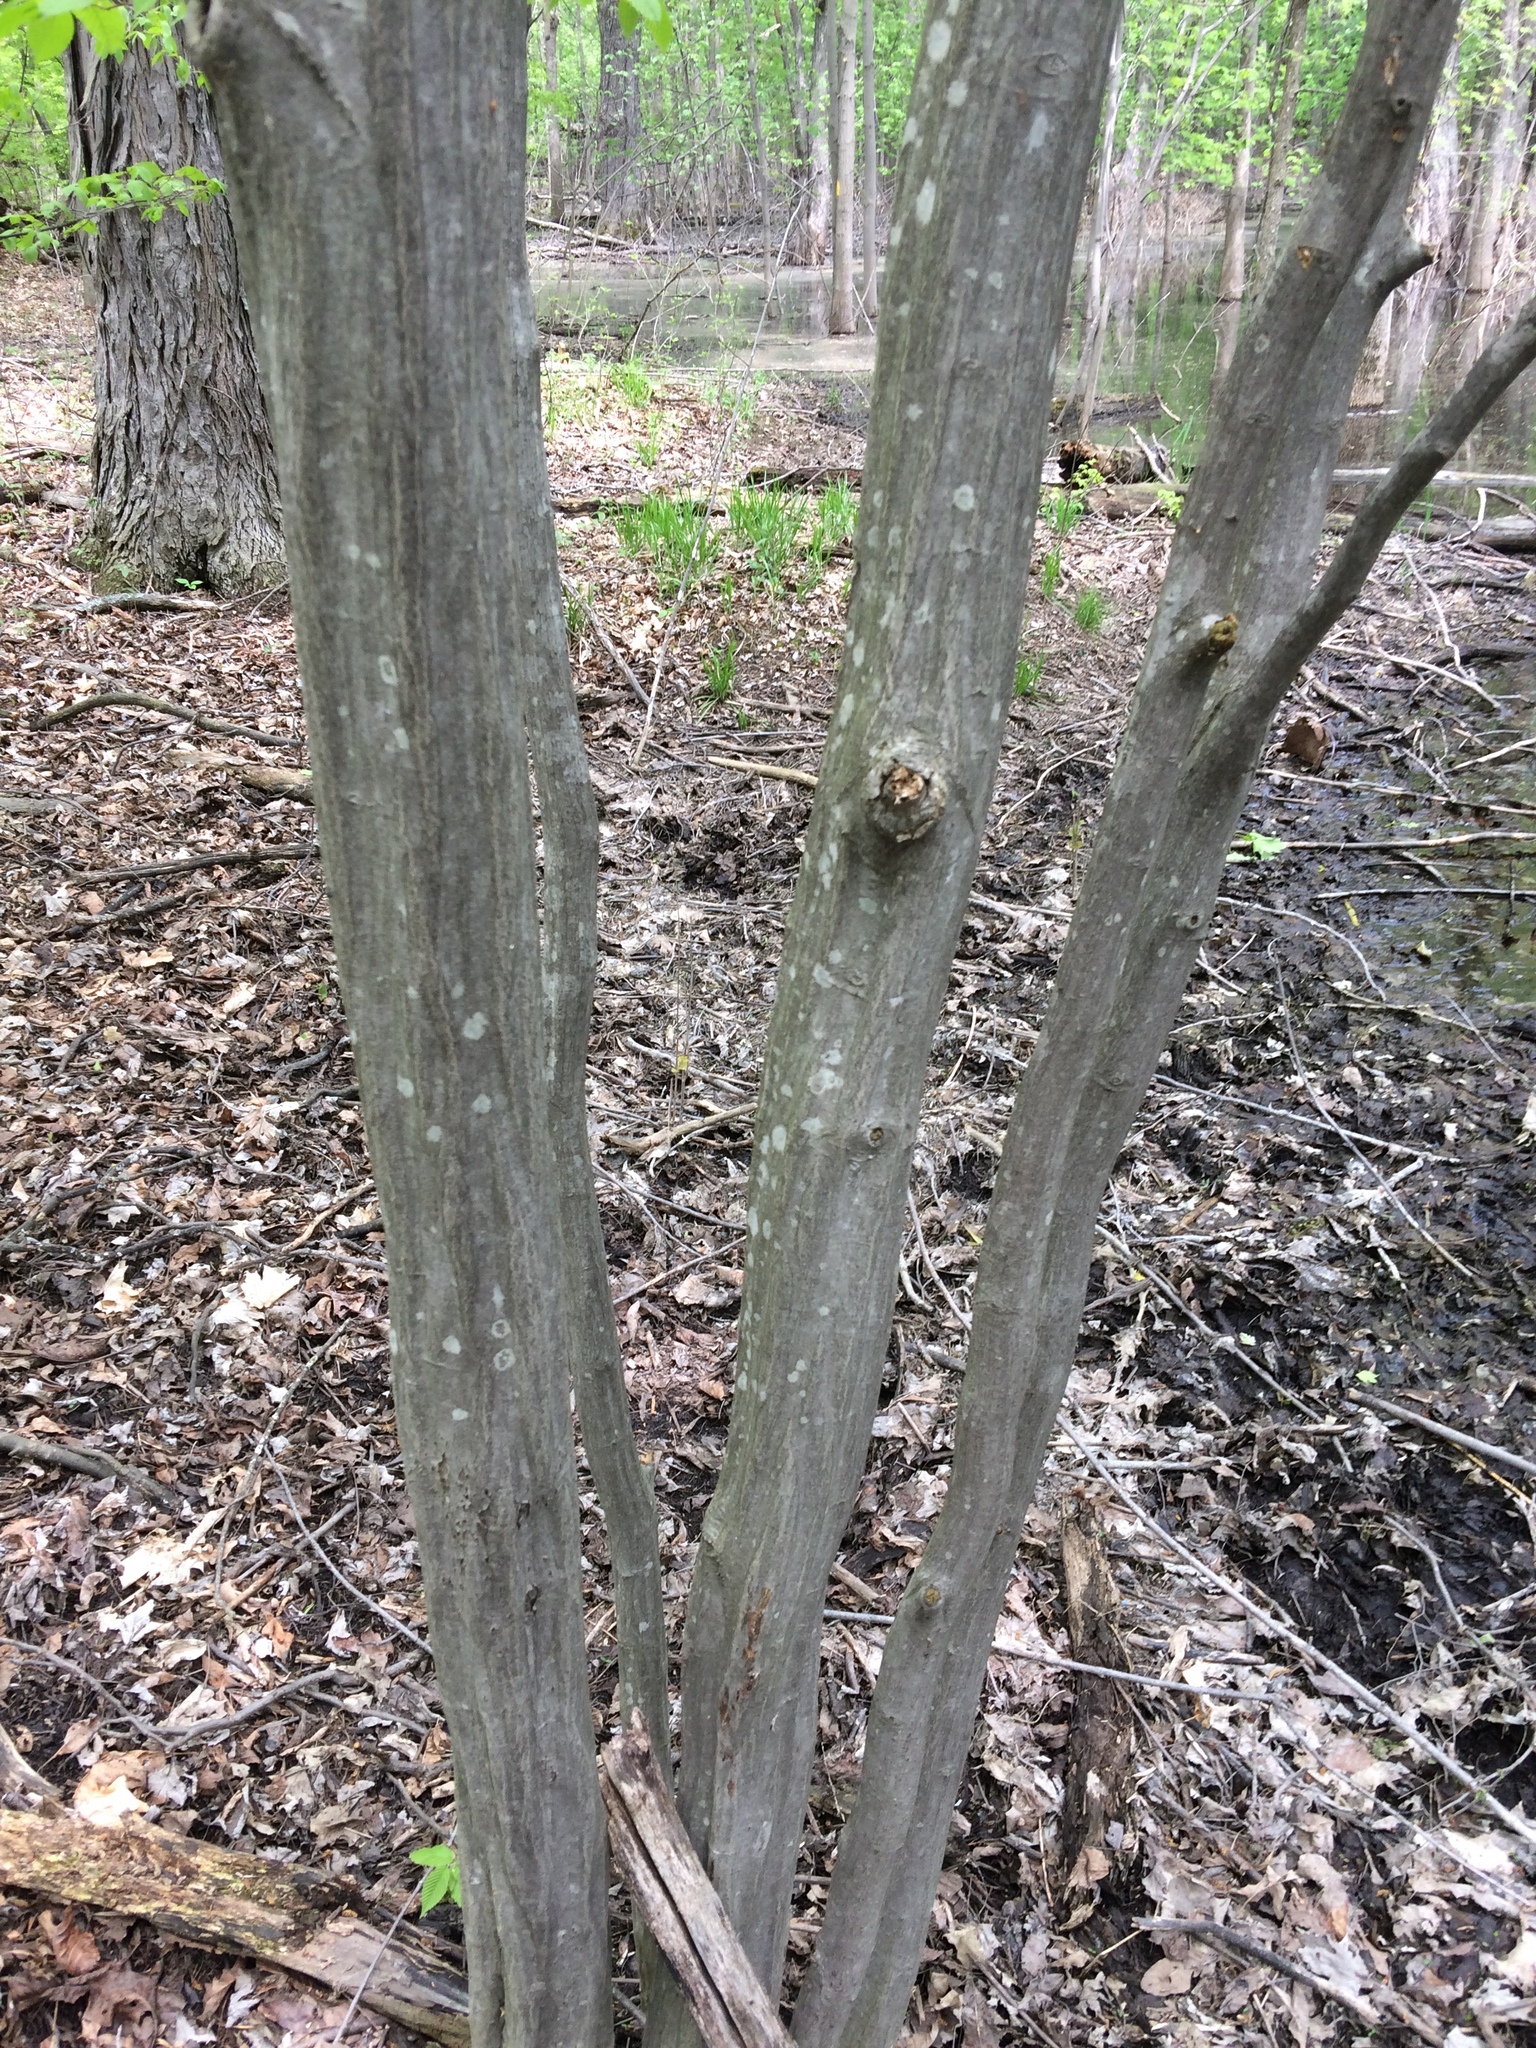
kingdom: Plantae
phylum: Tracheophyta
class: Magnoliopsida
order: Fagales
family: Betulaceae
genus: Carpinus
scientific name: Carpinus caroliniana
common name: American hornbeam
